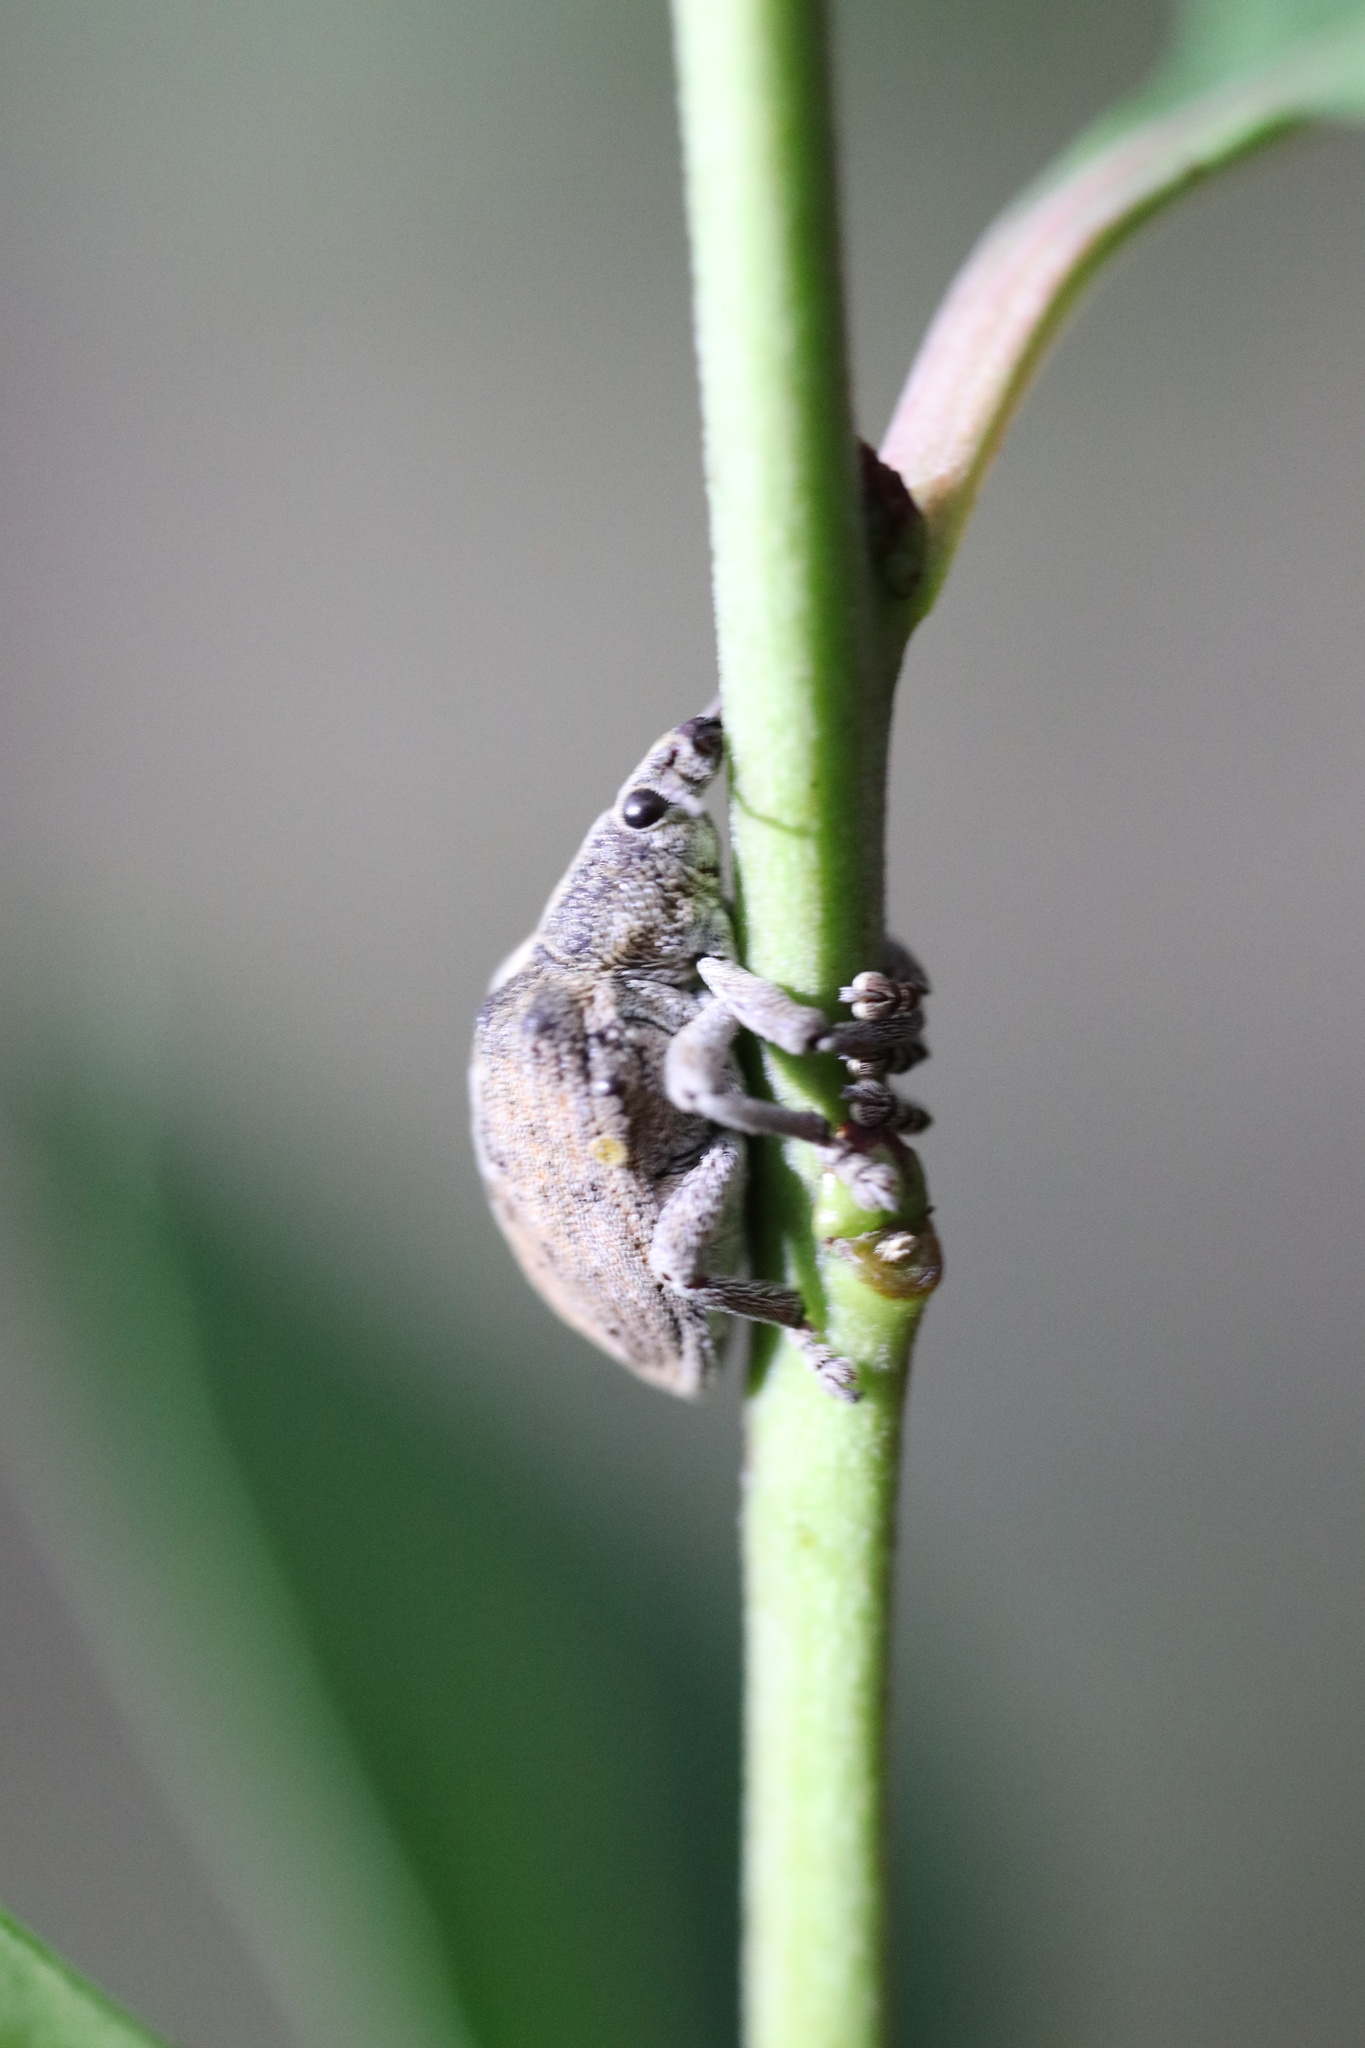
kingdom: Animalia
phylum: Arthropoda
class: Insecta
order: Coleoptera
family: Curculionidae
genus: Gonipterus
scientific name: Gonipterus platensis
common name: Eucalyptus snout beetle
